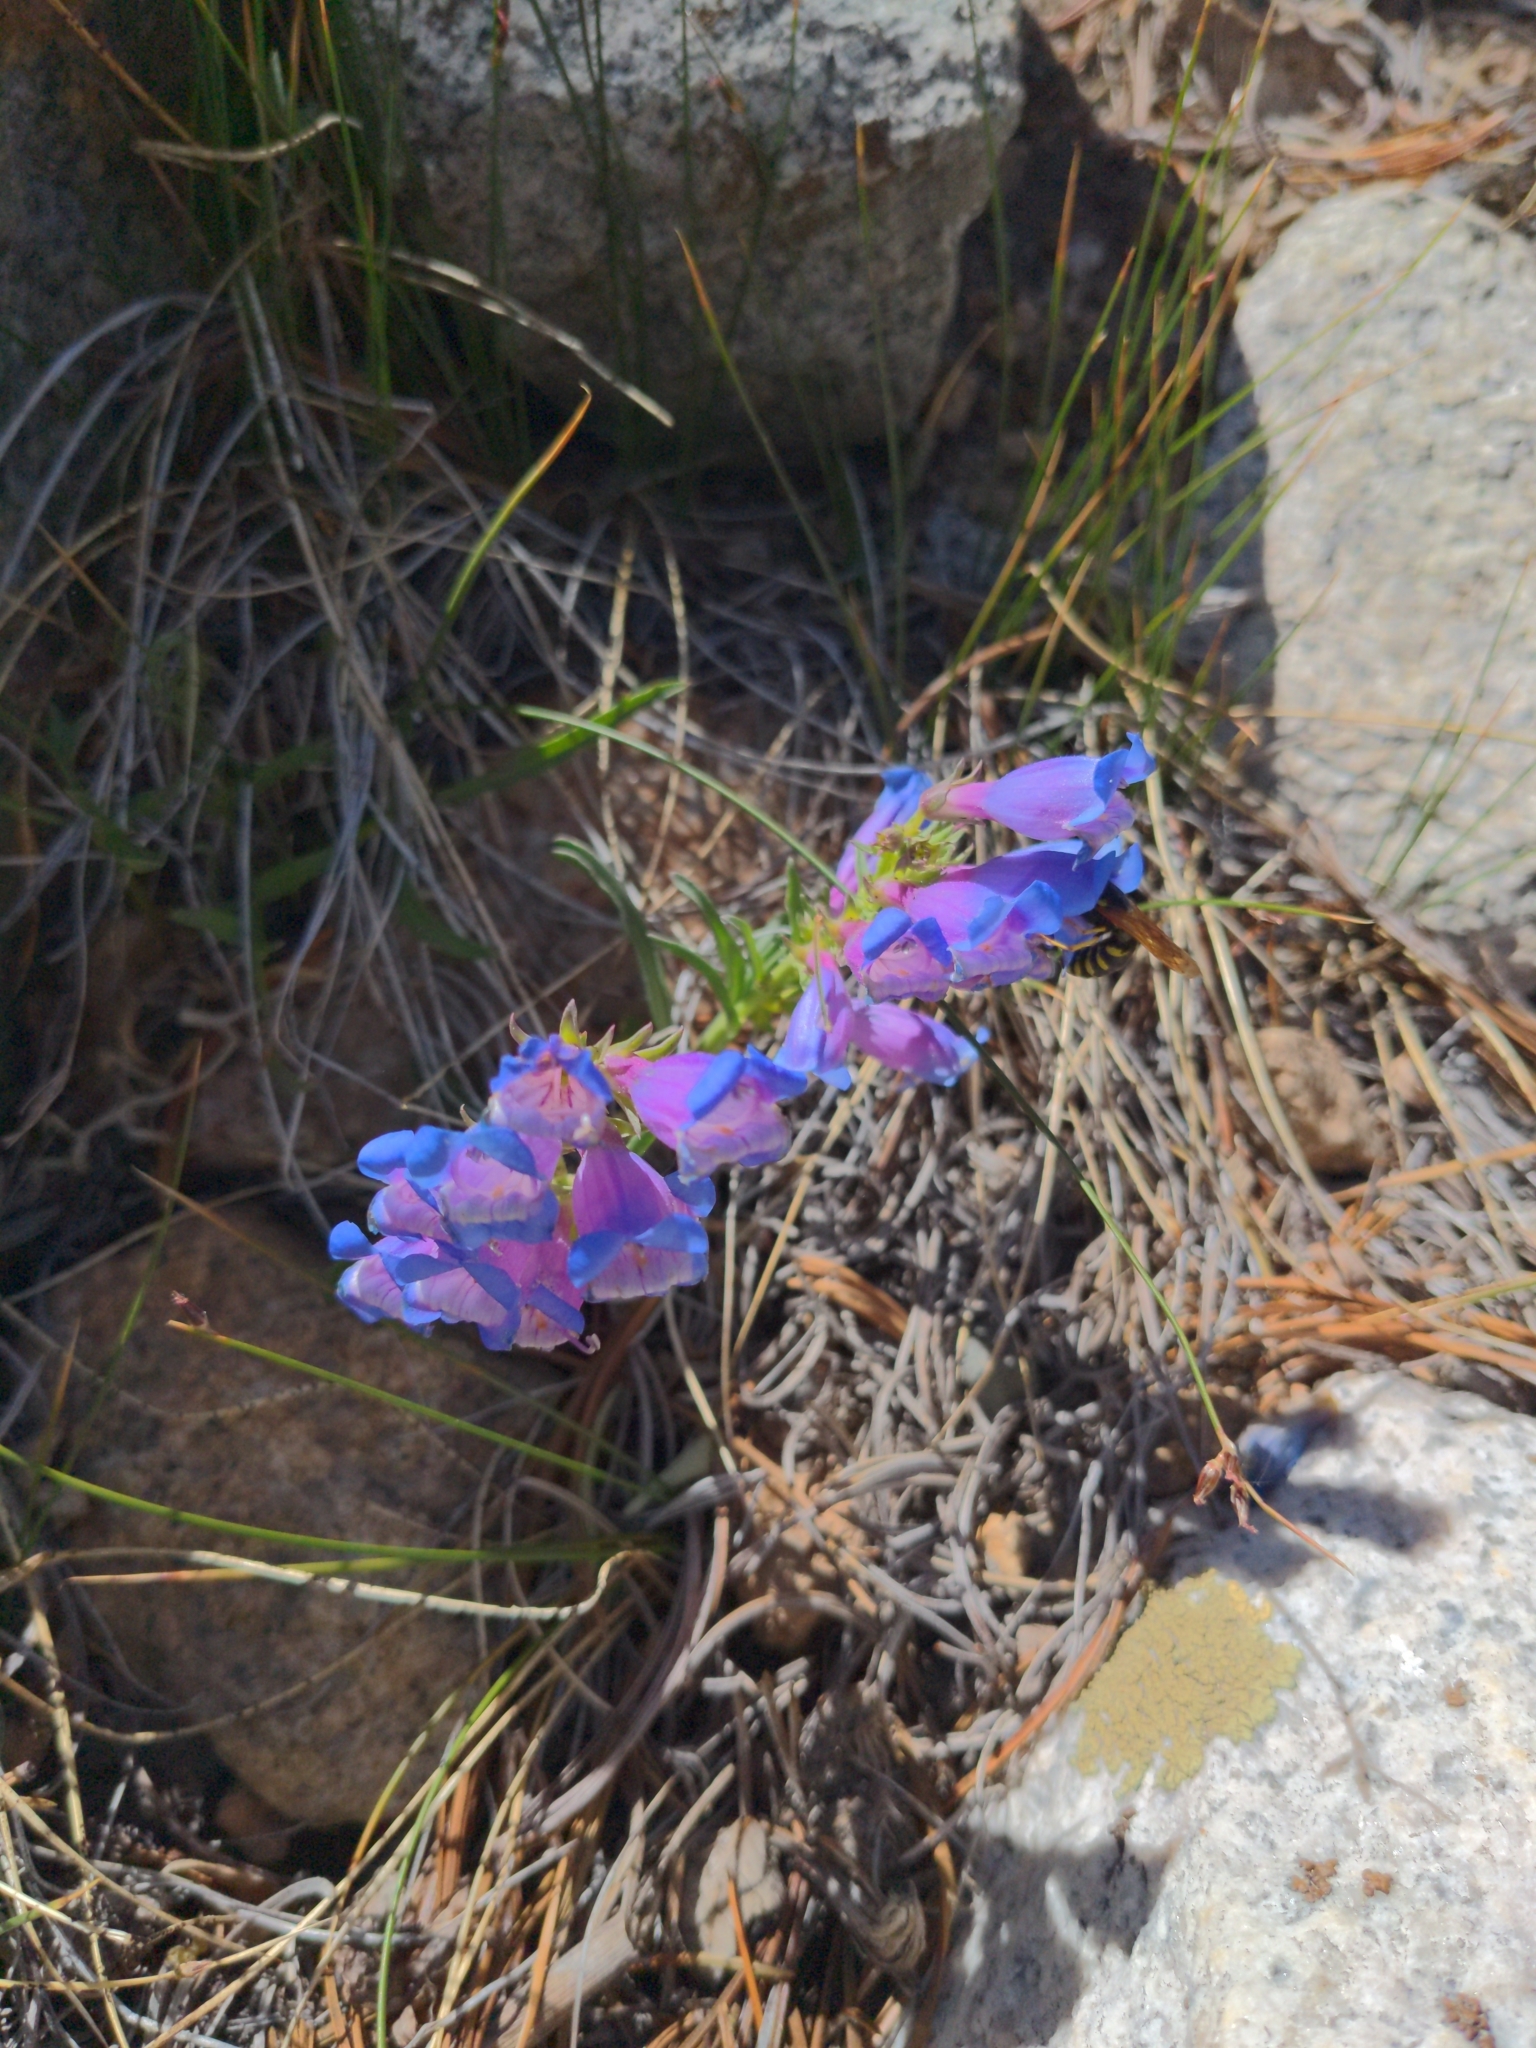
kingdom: Plantae
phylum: Tracheophyta
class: Magnoliopsida
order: Lamiales
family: Plantaginaceae
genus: Penstemon
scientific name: Penstemon speciosus
